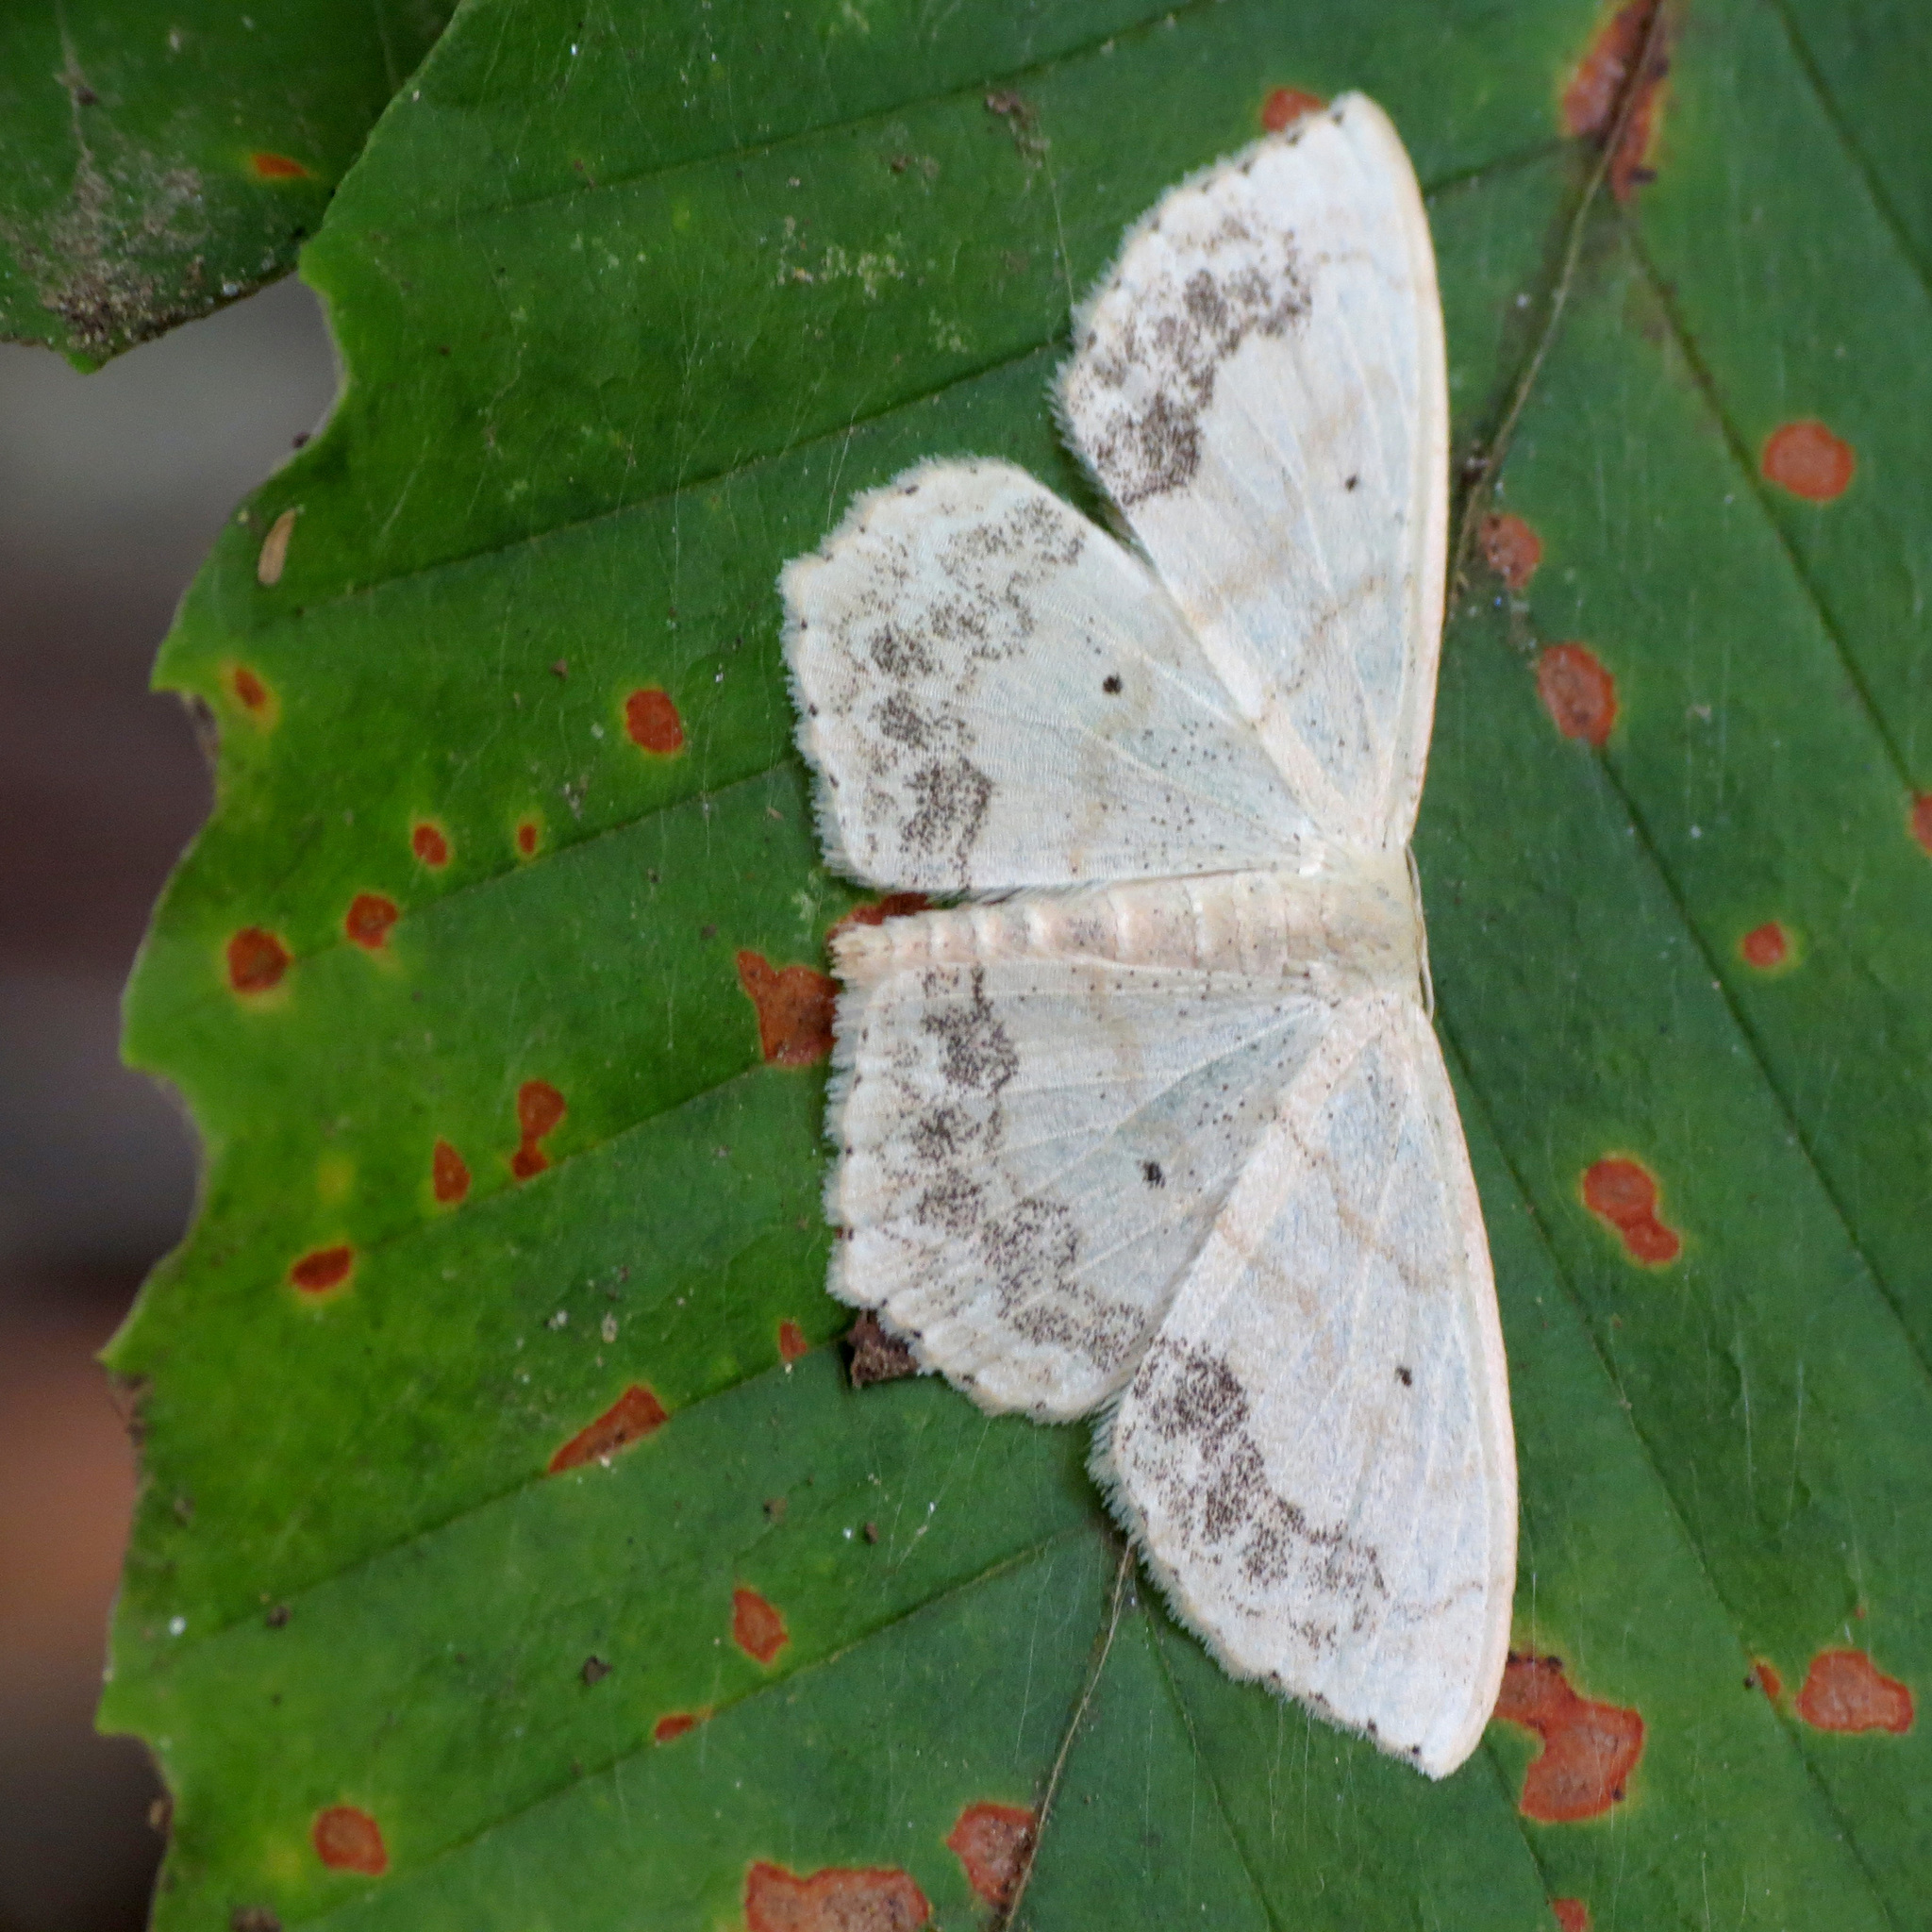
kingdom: Animalia
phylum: Arthropoda
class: Insecta
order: Lepidoptera
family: Geometridae
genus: Scopula
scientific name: Scopula limboundata
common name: Large lace border
